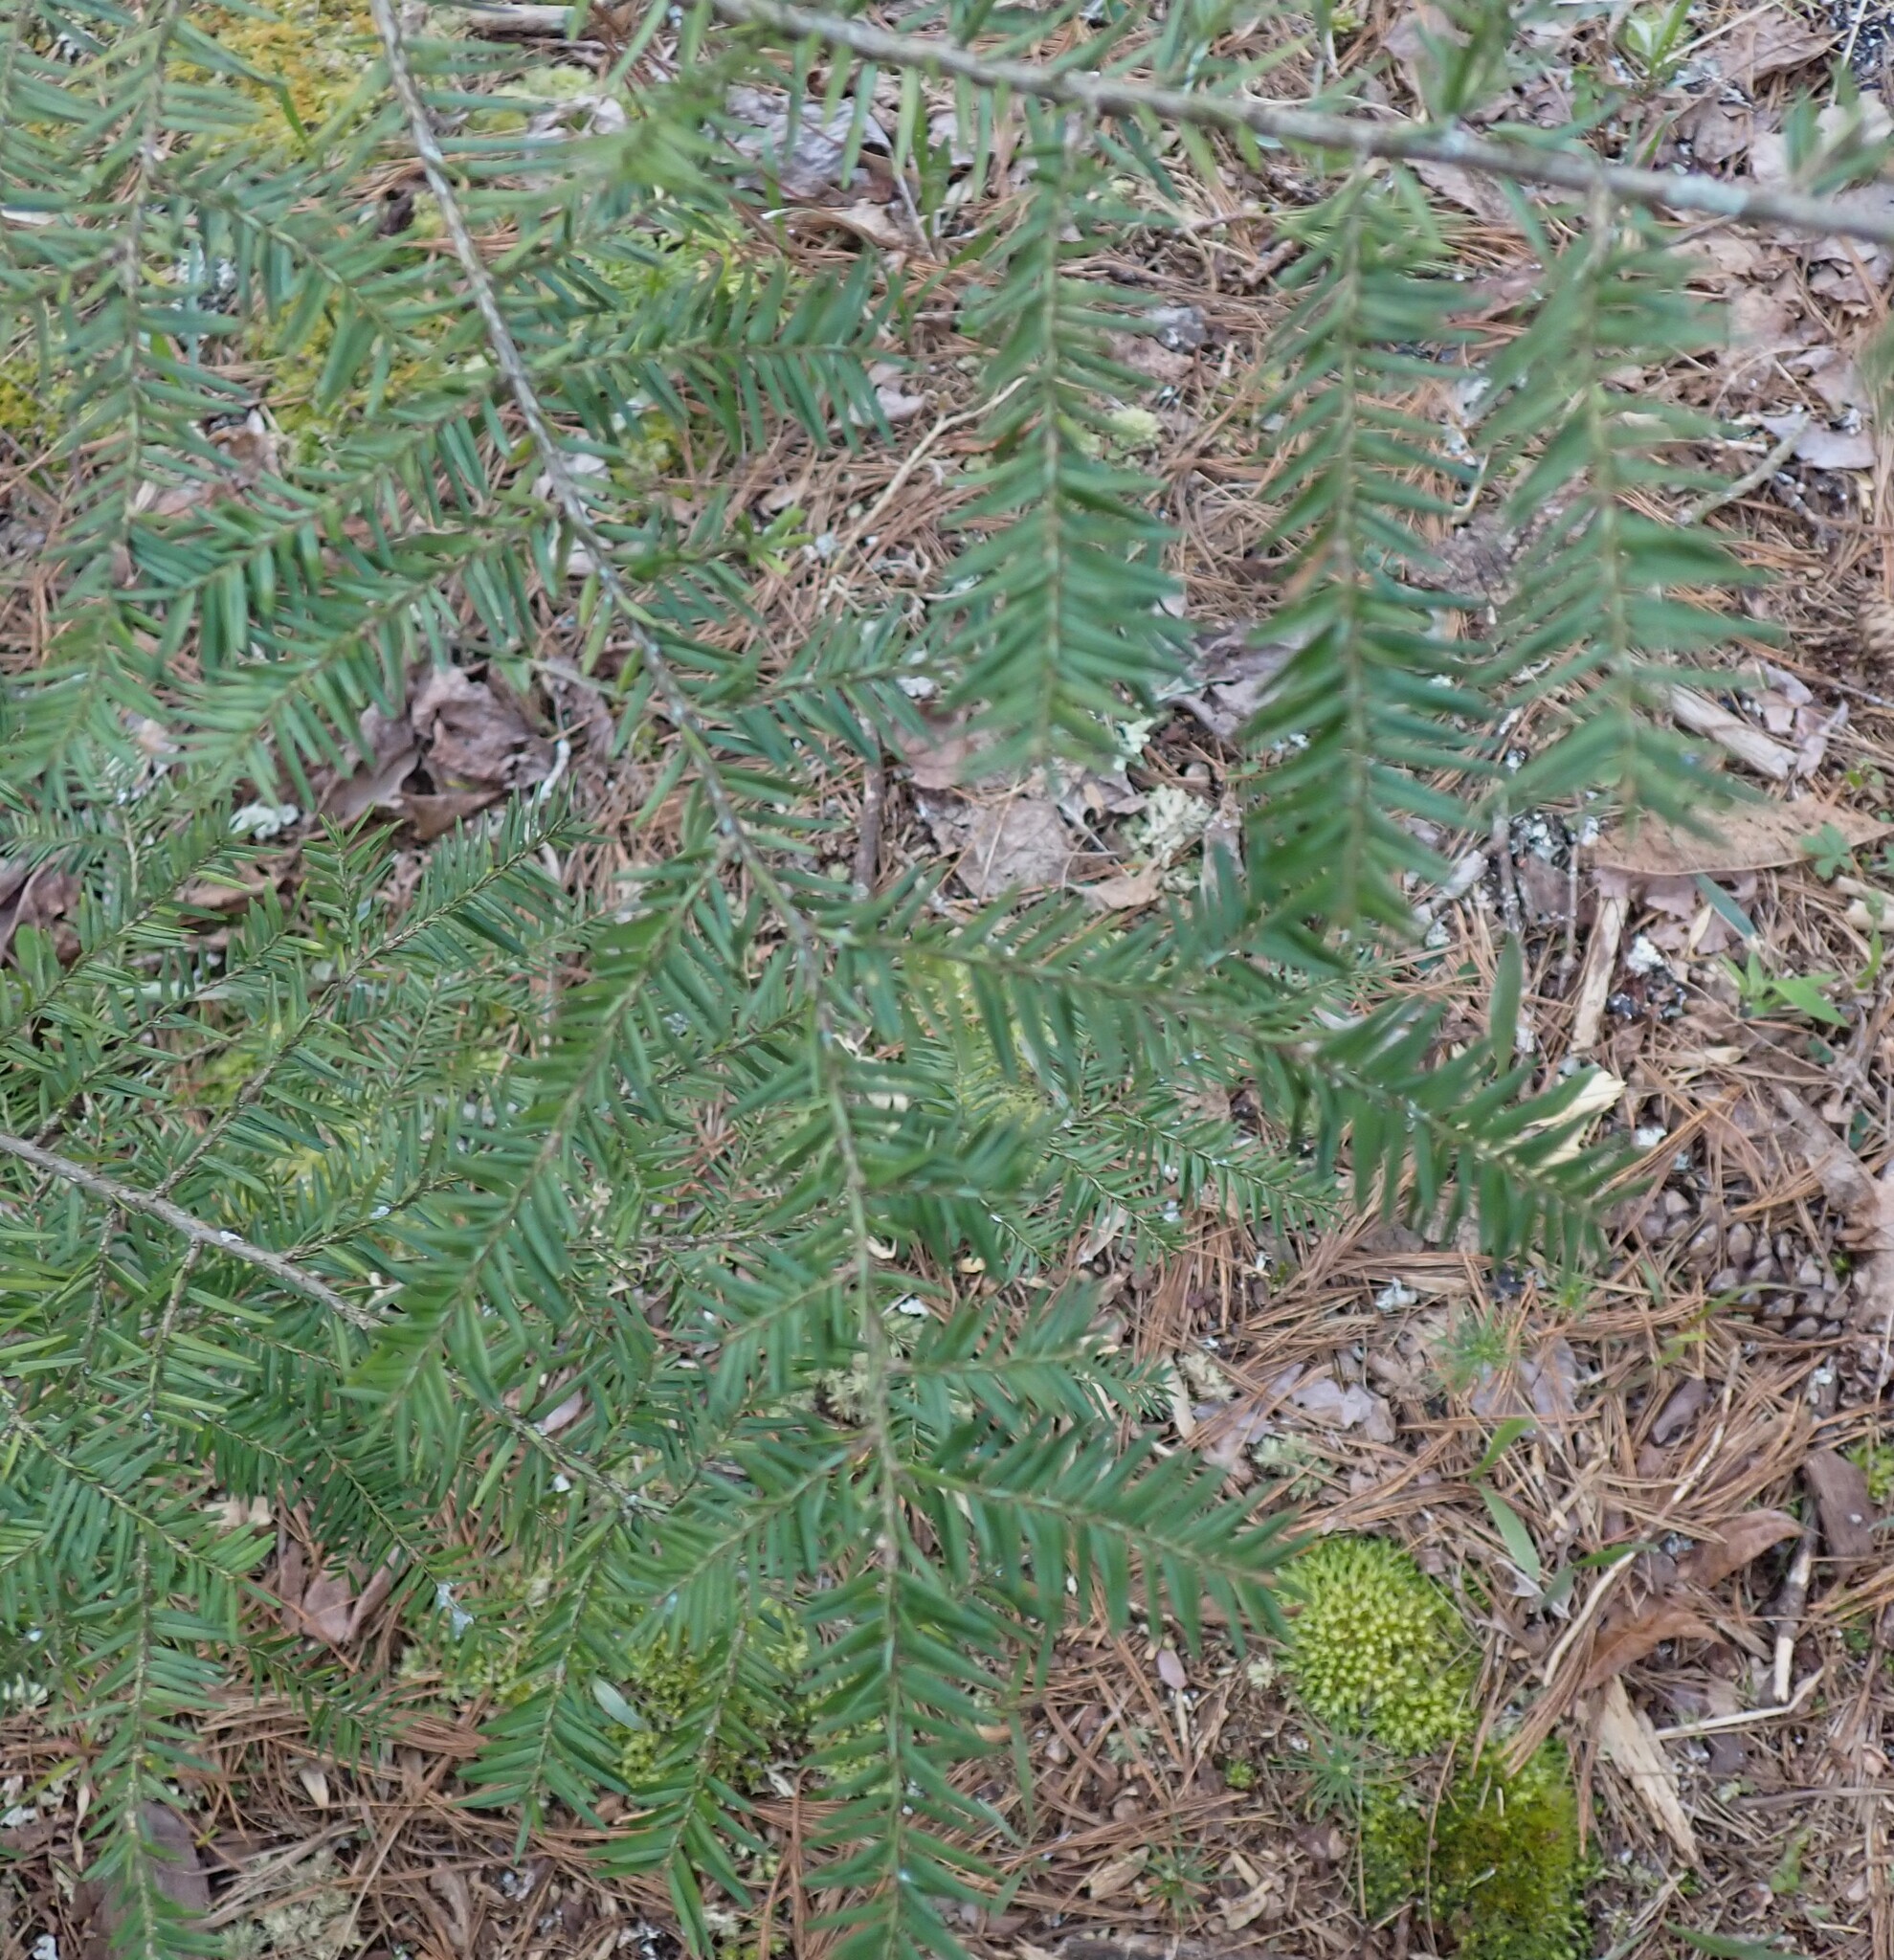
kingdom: Plantae
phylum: Tracheophyta
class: Pinopsida
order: Pinales
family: Pinaceae
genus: Tsuga
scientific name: Tsuga canadensis
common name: Eastern hemlock
